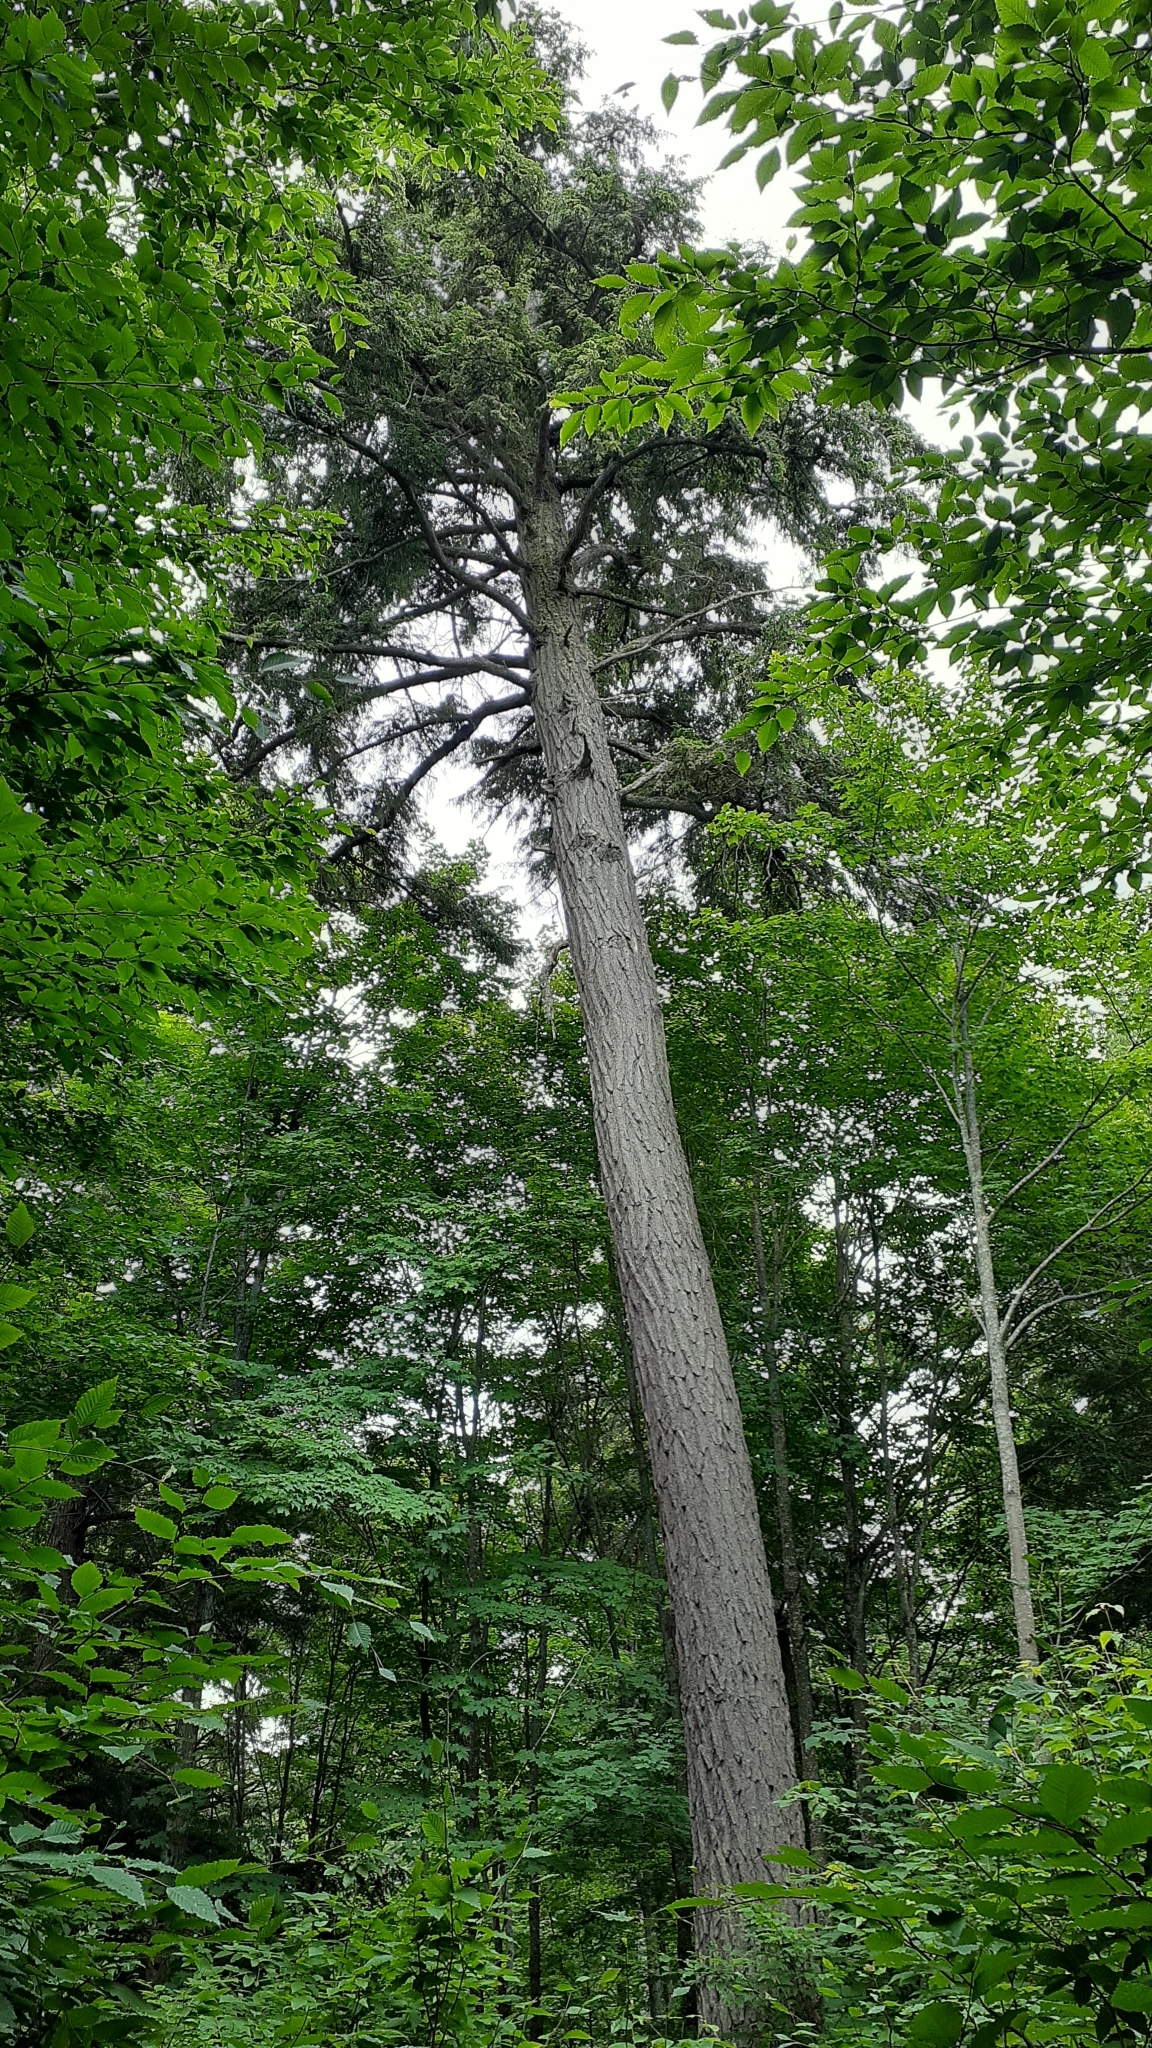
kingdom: Plantae
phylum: Tracheophyta
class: Pinopsida
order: Pinales
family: Pinaceae
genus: Tsuga
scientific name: Tsuga canadensis
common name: Eastern hemlock
